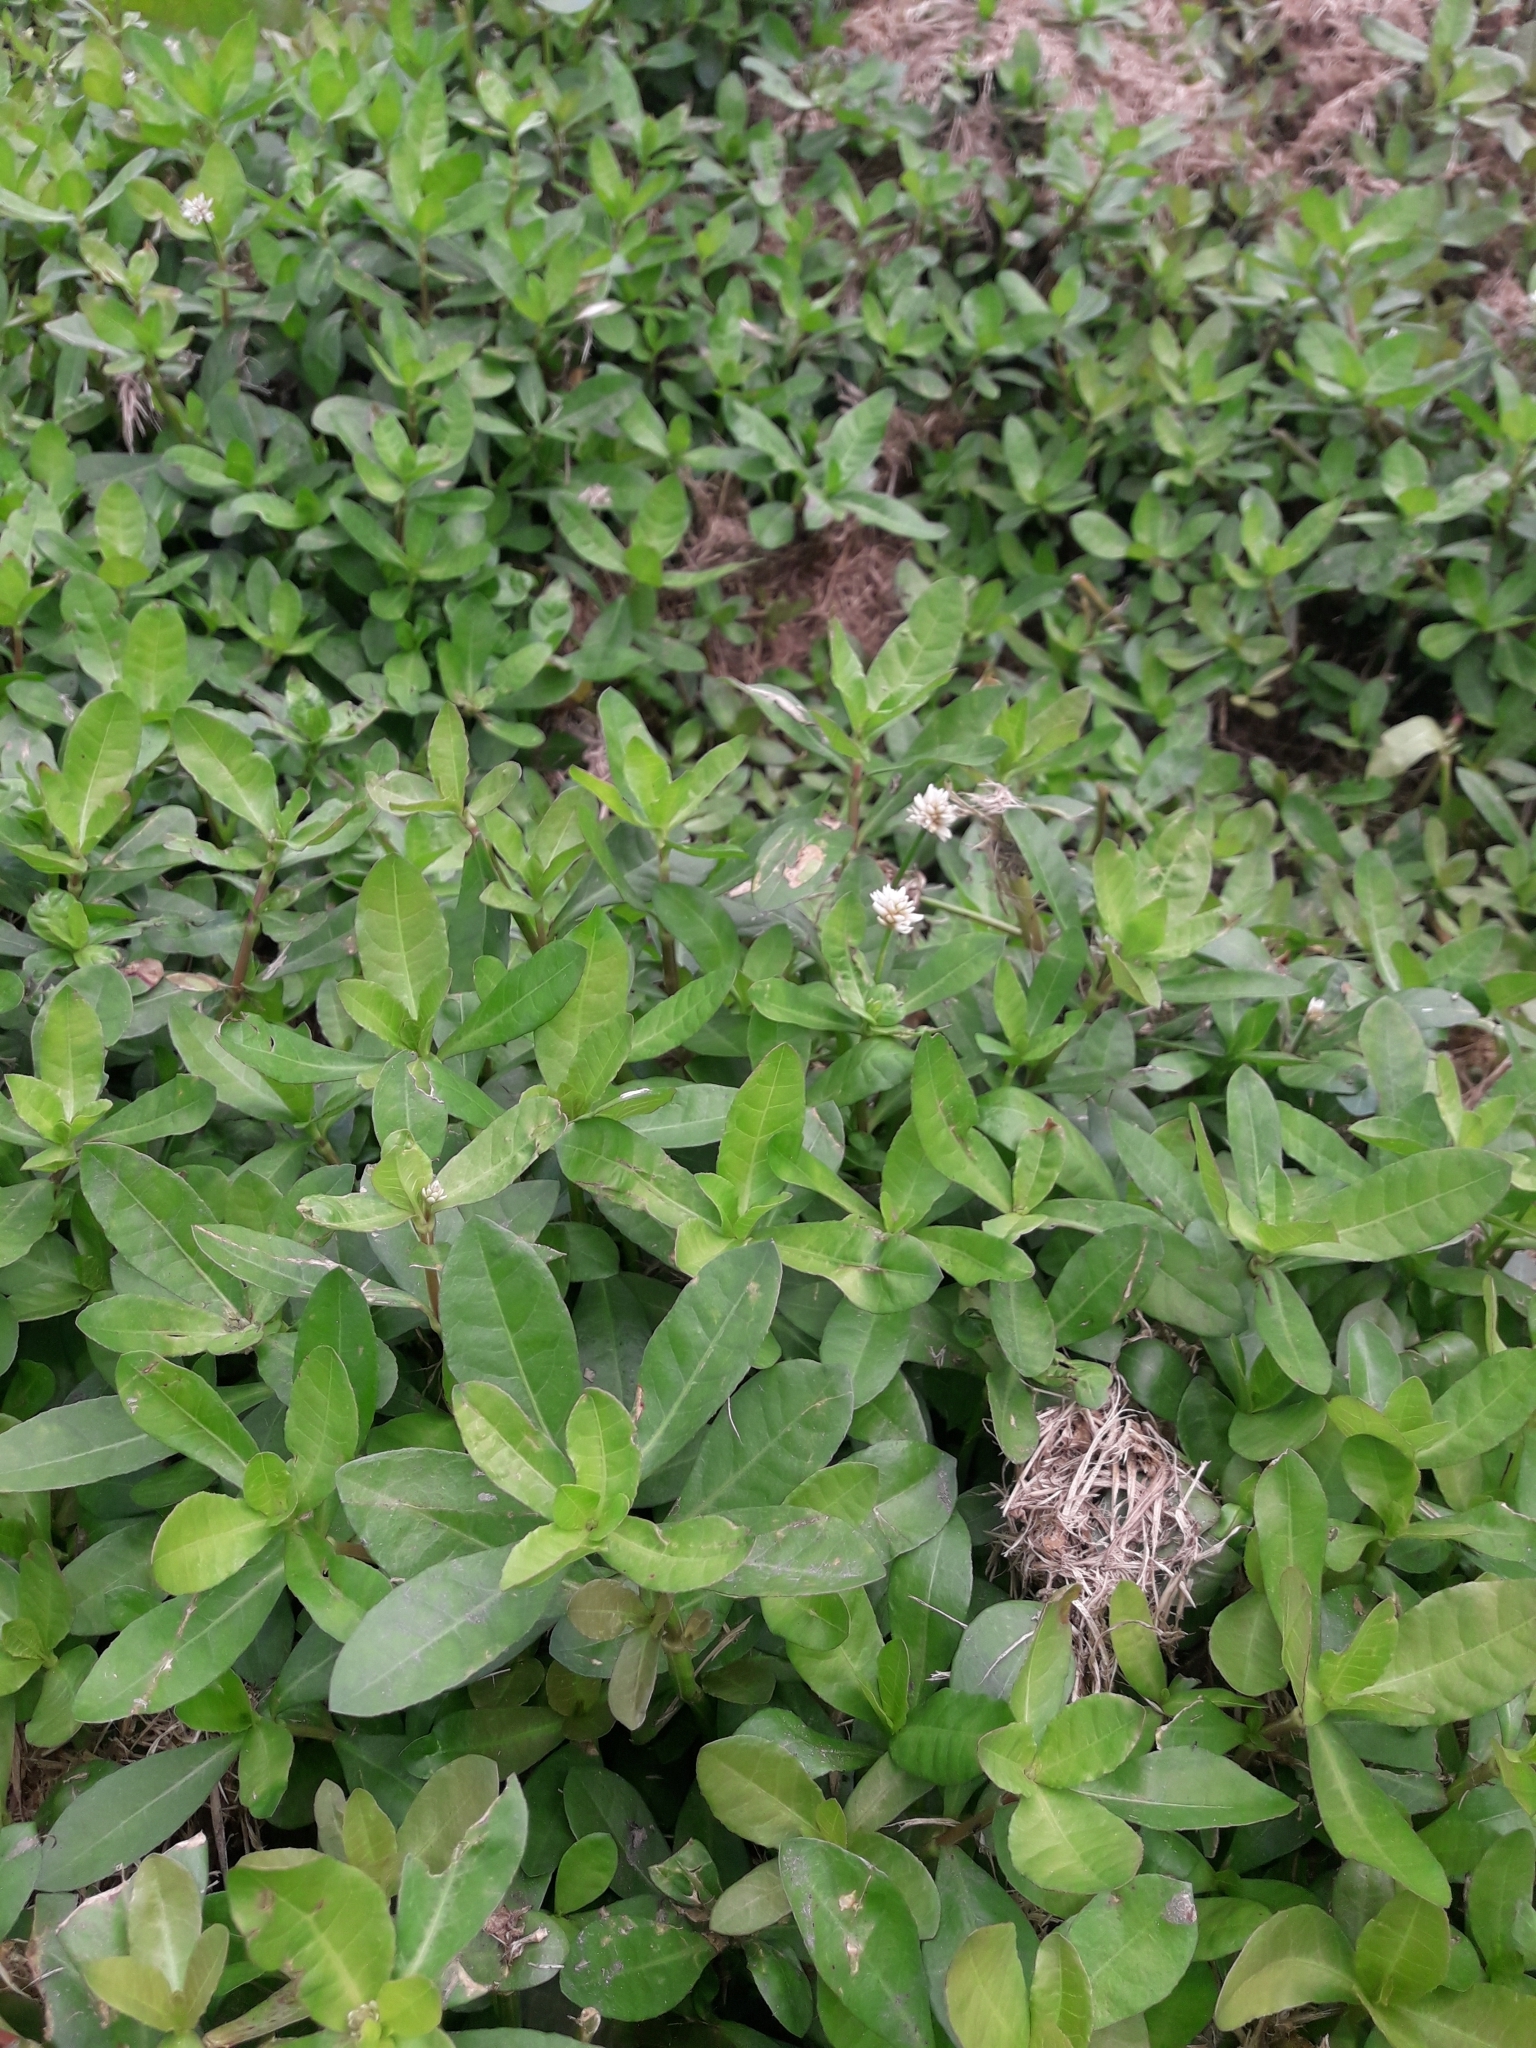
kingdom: Plantae
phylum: Tracheophyta
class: Magnoliopsida
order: Caryophyllales
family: Amaranthaceae
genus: Alternanthera
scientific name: Alternanthera philoxeroides
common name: Alligatorweed
